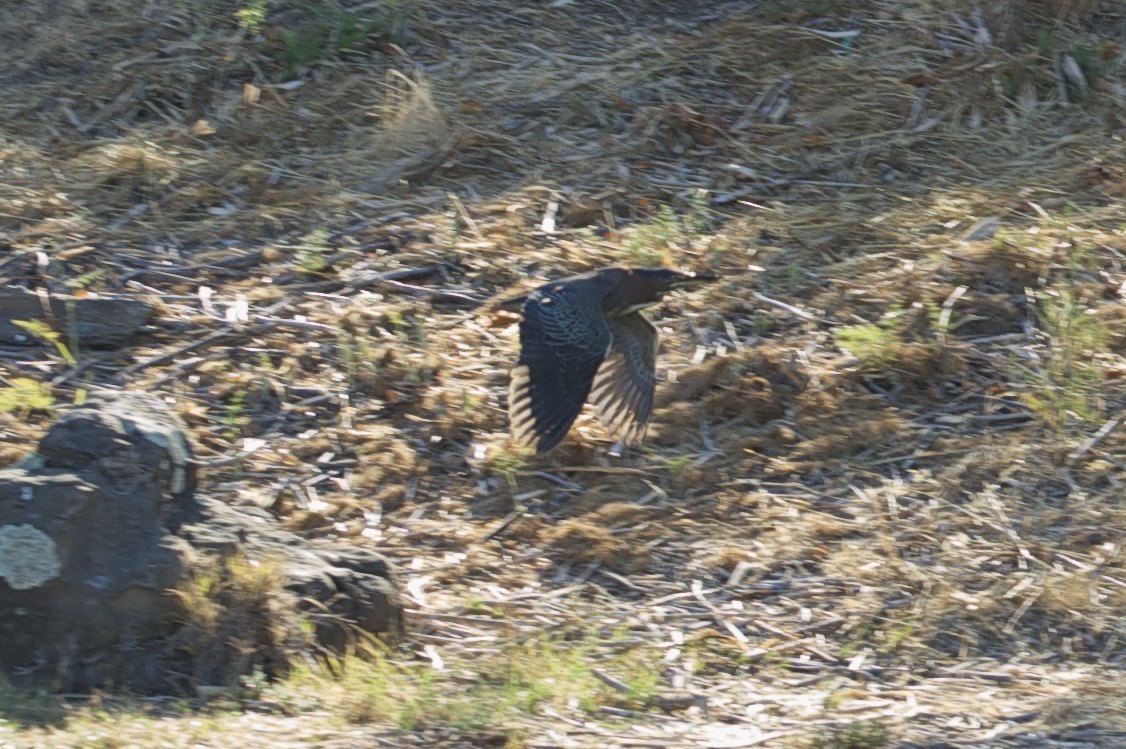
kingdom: Animalia
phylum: Chordata
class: Aves
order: Pelecaniformes
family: Ardeidae
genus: Butorides
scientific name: Butorides virescens
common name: Green heron
